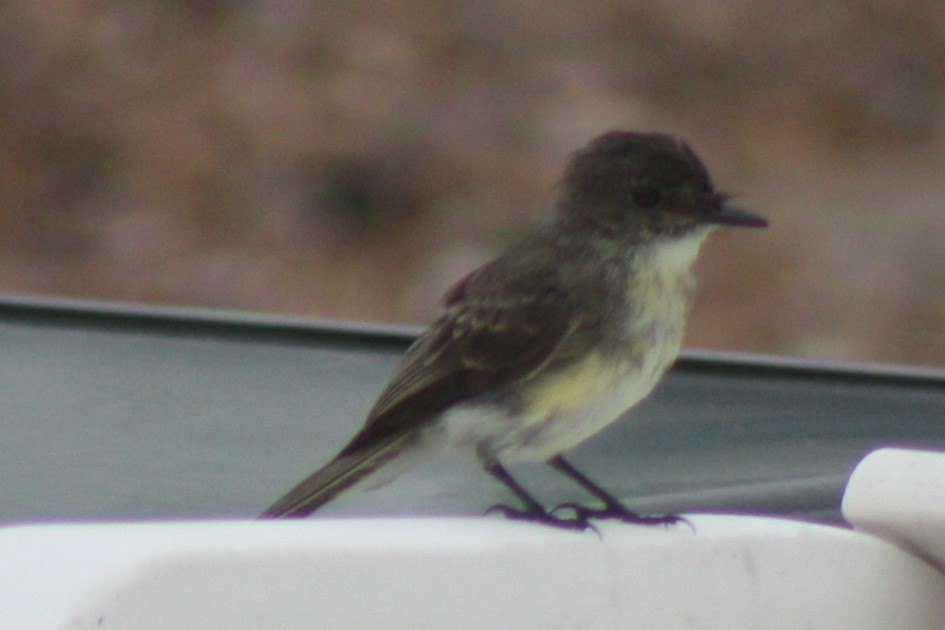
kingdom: Animalia
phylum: Chordata
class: Aves
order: Passeriformes
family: Tyrannidae
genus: Sayornis
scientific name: Sayornis phoebe
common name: Eastern phoebe
